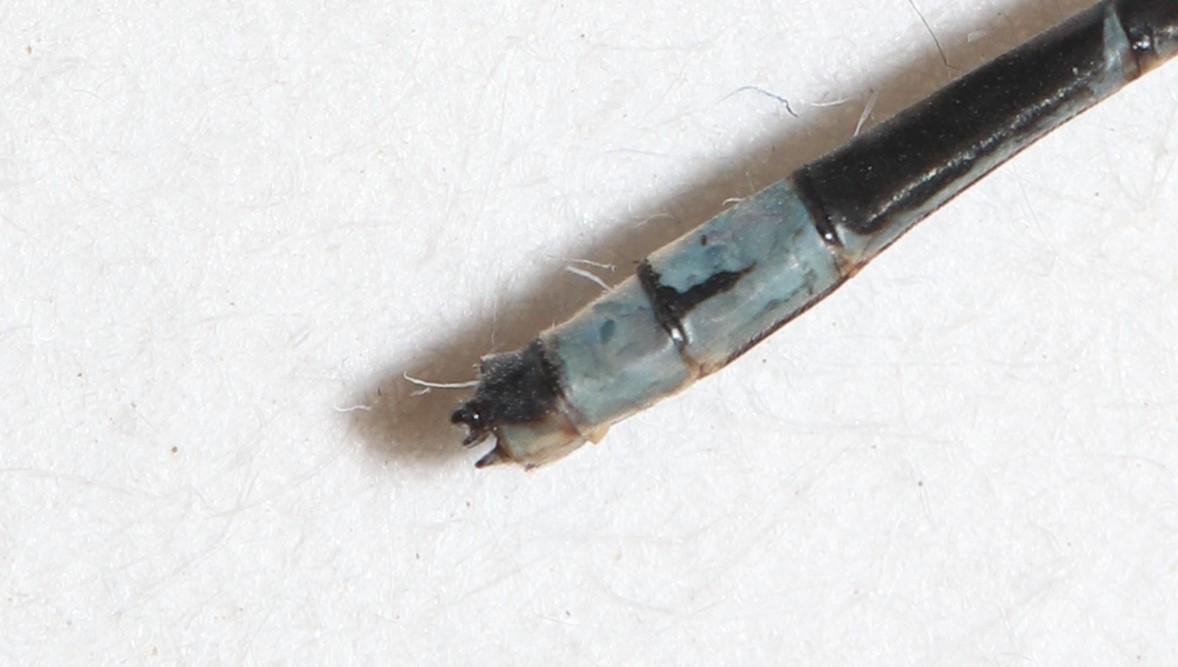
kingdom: Animalia
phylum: Arthropoda
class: Insecta
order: Odonata
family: Coenagrionidae
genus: Enallagma
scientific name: Enallagma ebrium
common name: Marsh bluet
